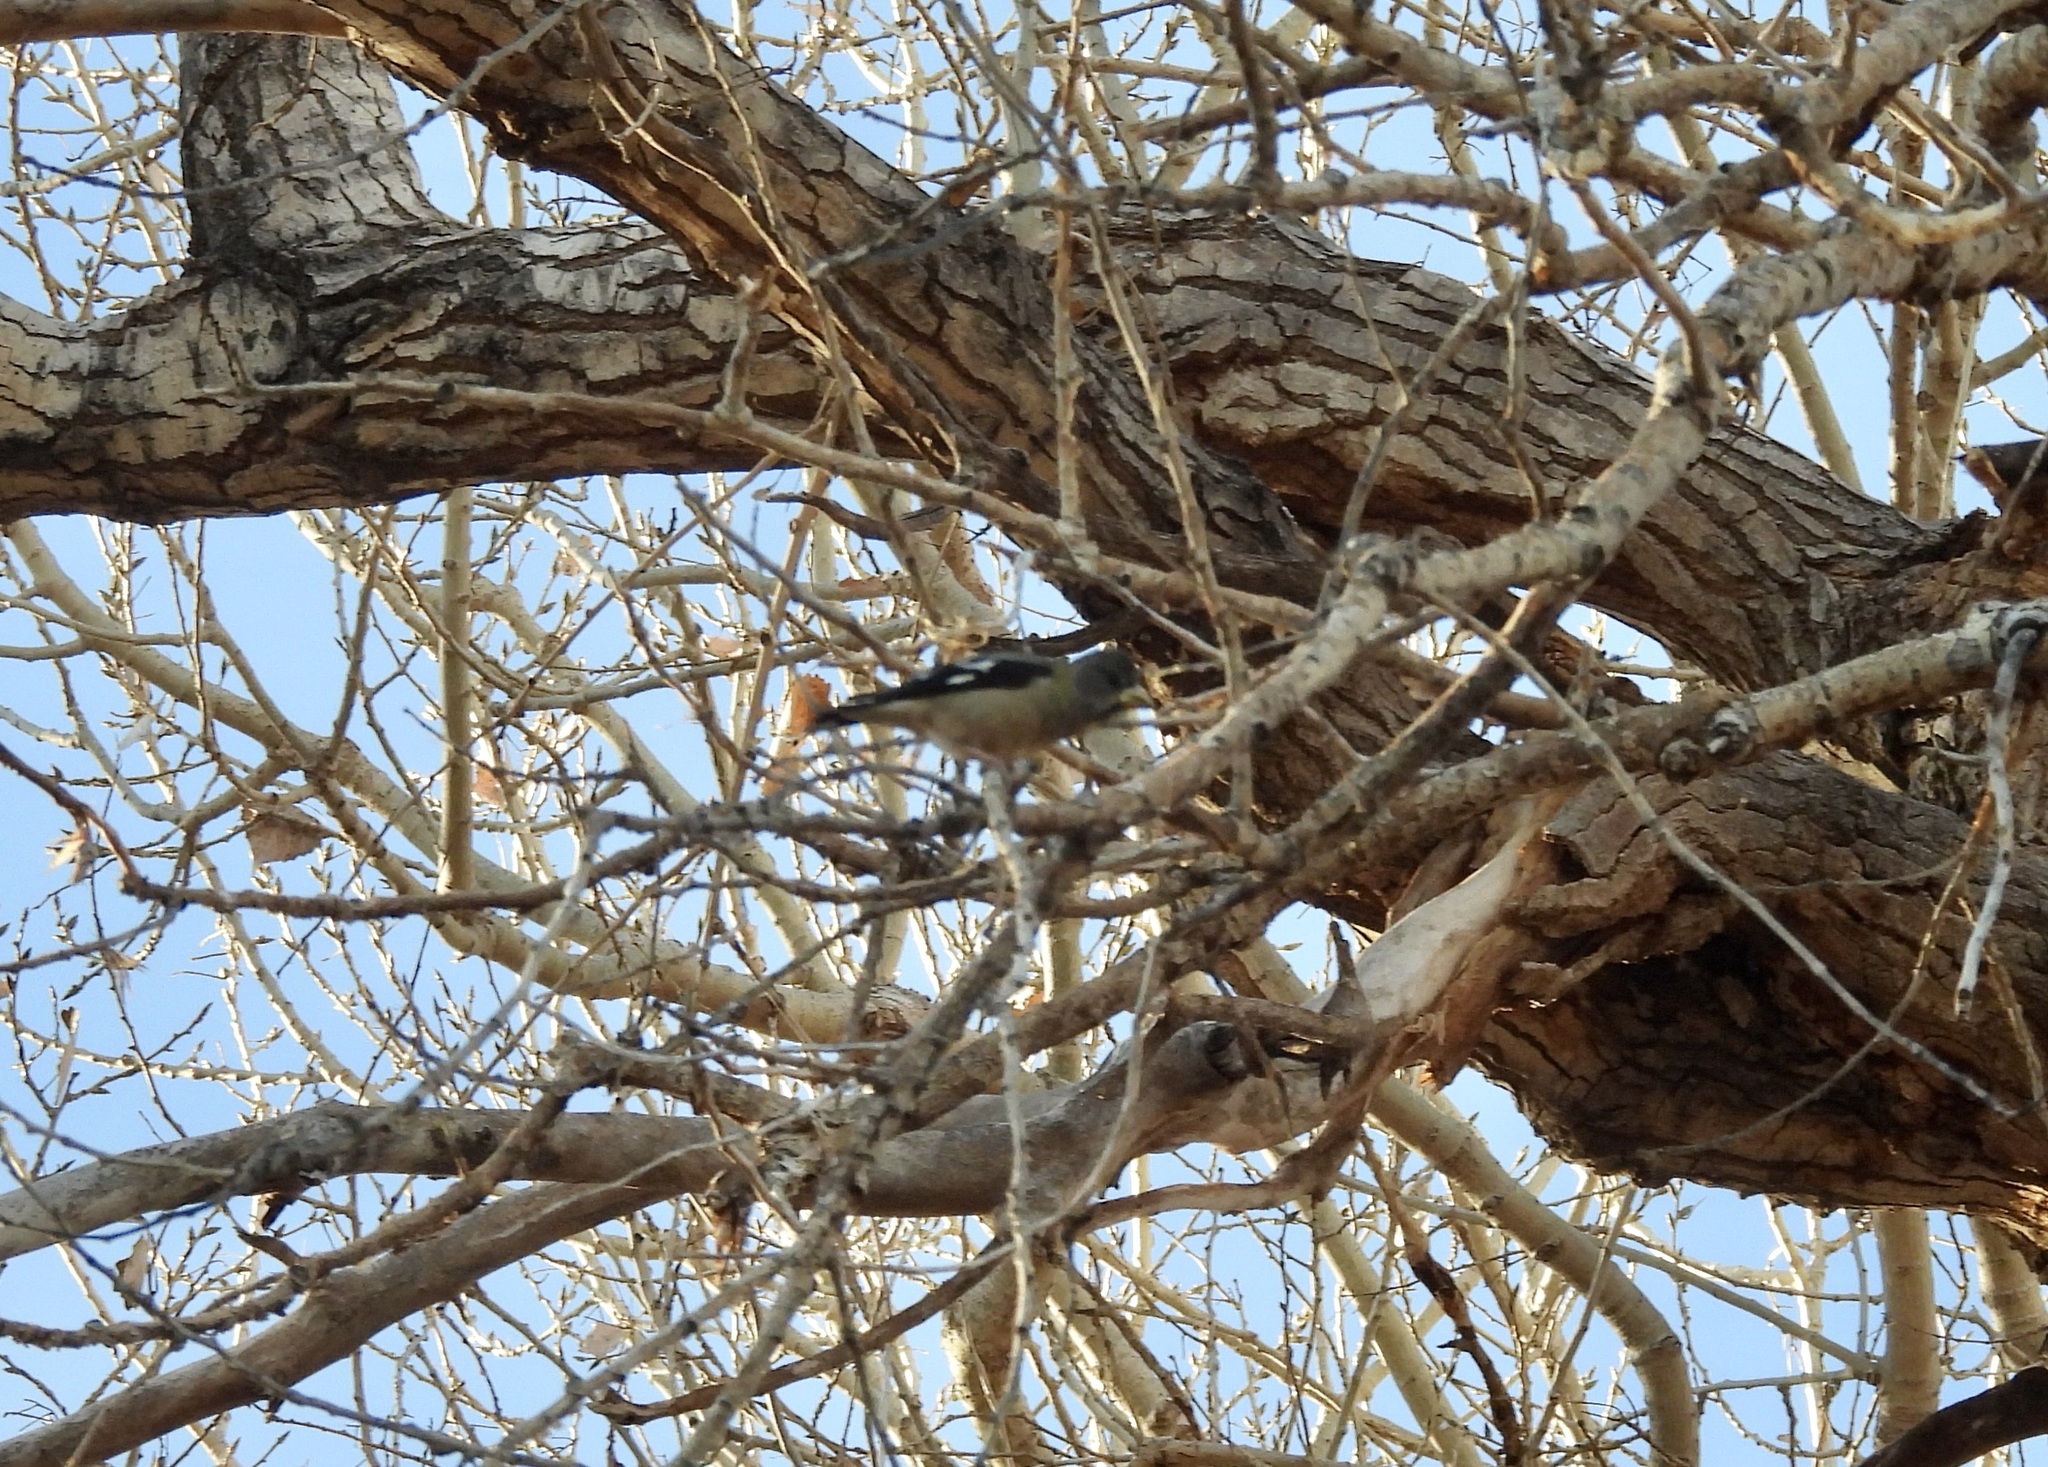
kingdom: Animalia
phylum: Chordata
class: Aves
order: Passeriformes
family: Fringillidae
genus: Hesperiphona
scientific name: Hesperiphona vespertina
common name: Evening grosbeak
